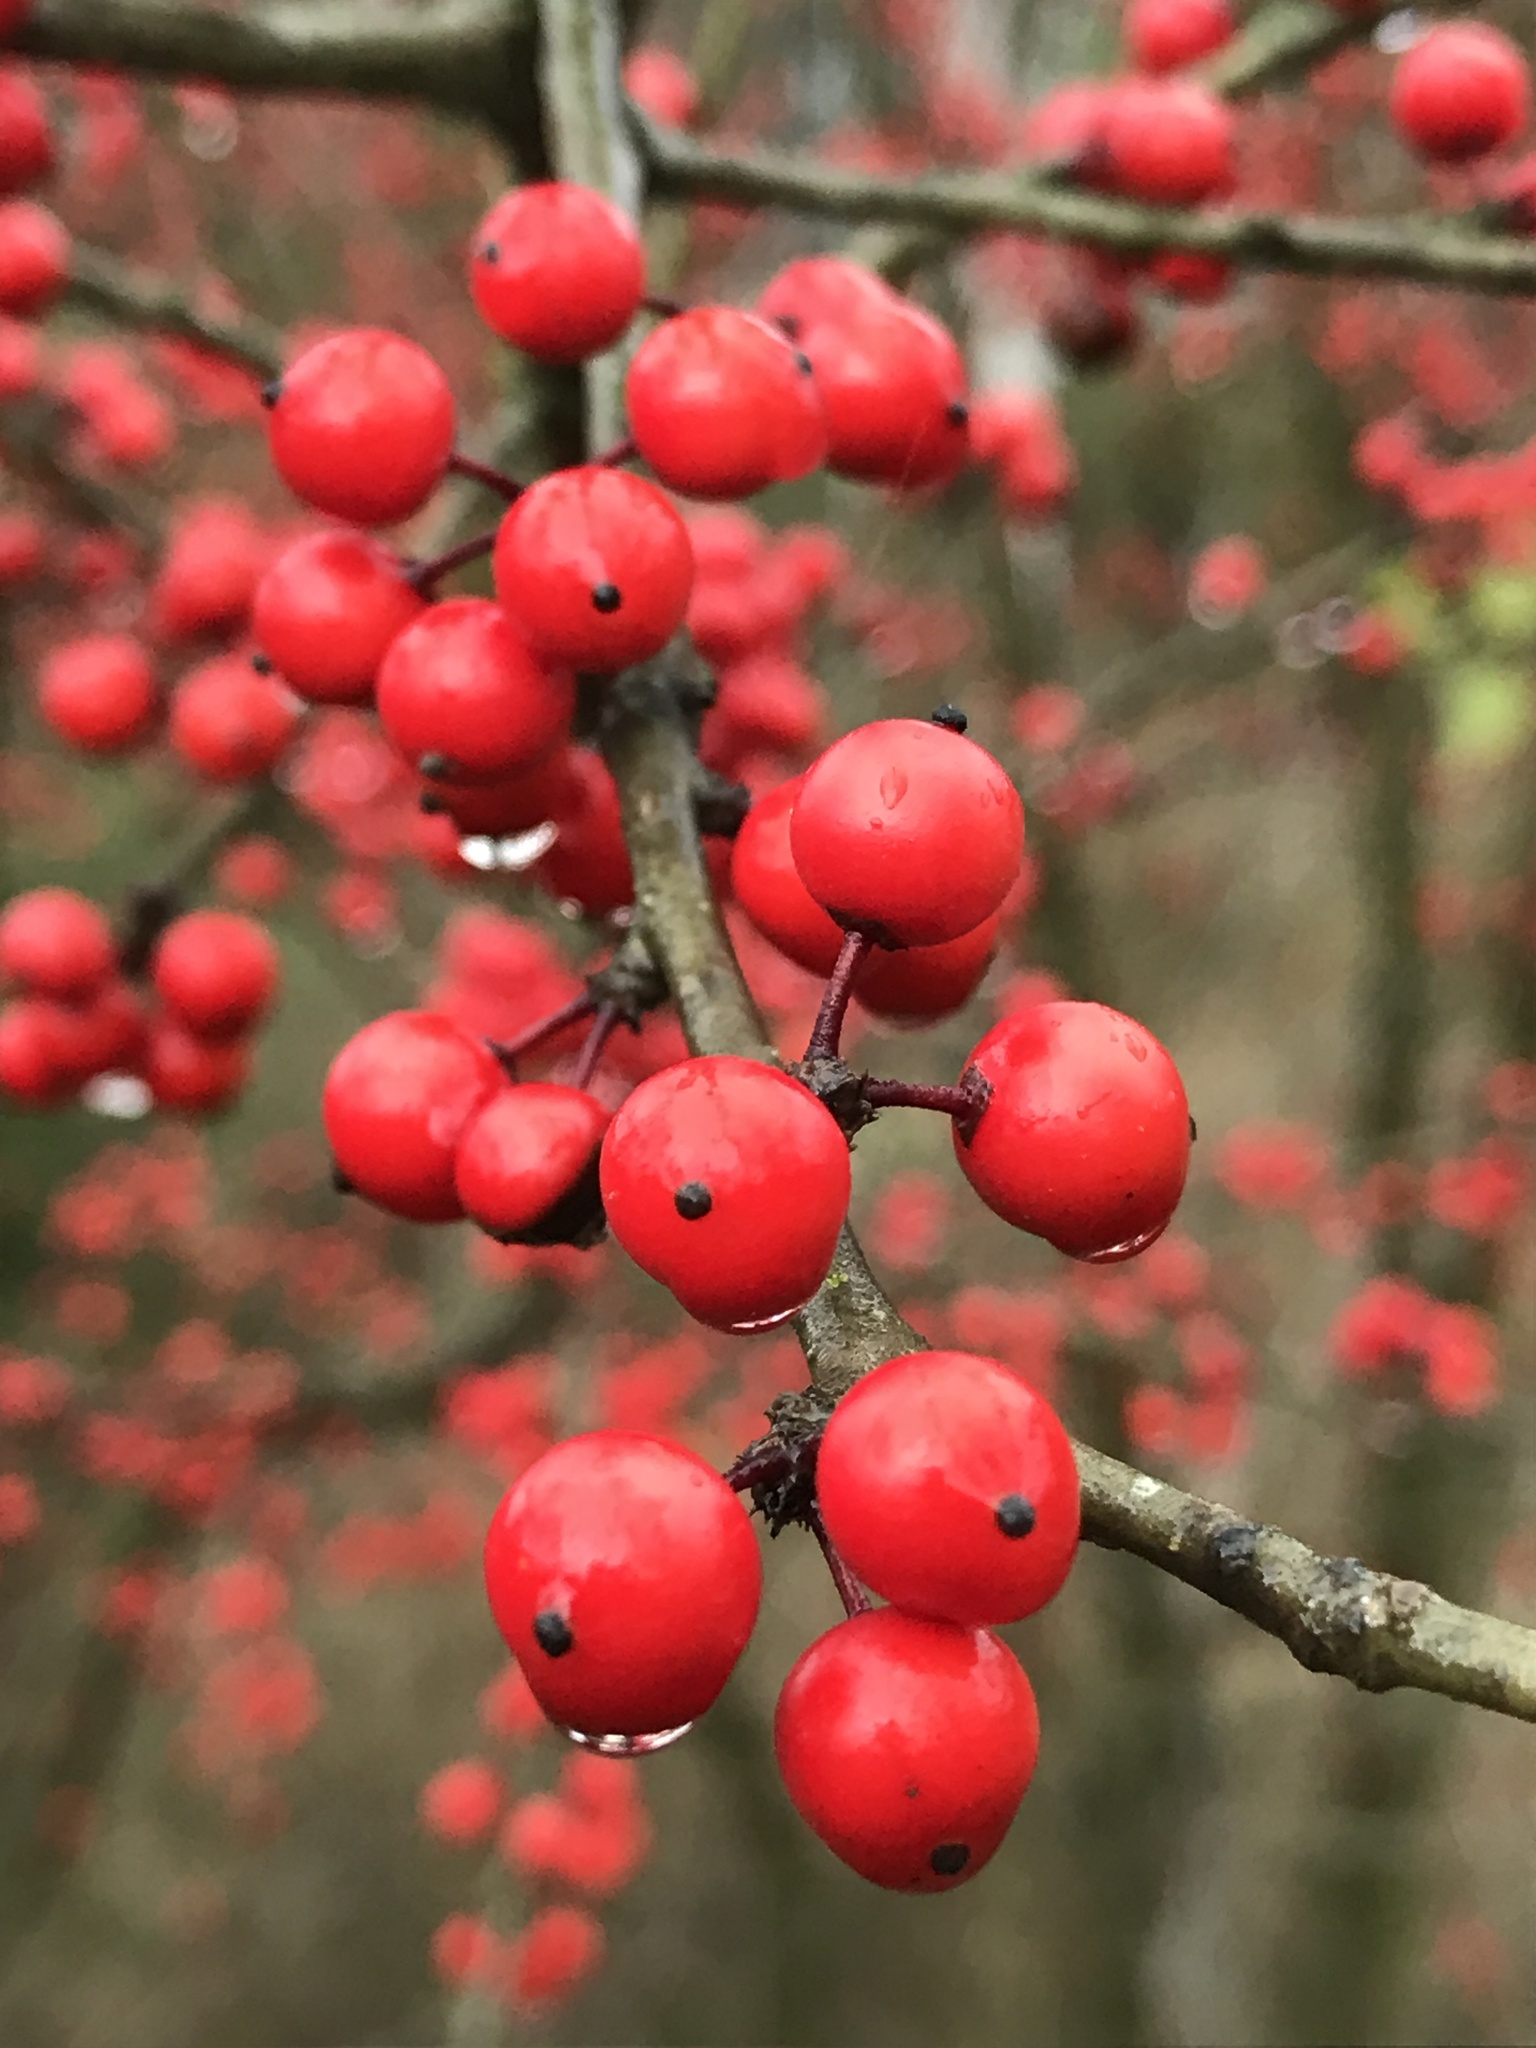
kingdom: Plantae
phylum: Tracheophyta
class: Magnoliopsida
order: Aquifoliales
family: Aquifoliaceae
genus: Ilex
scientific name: Ilex decidua
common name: Possum-haw
